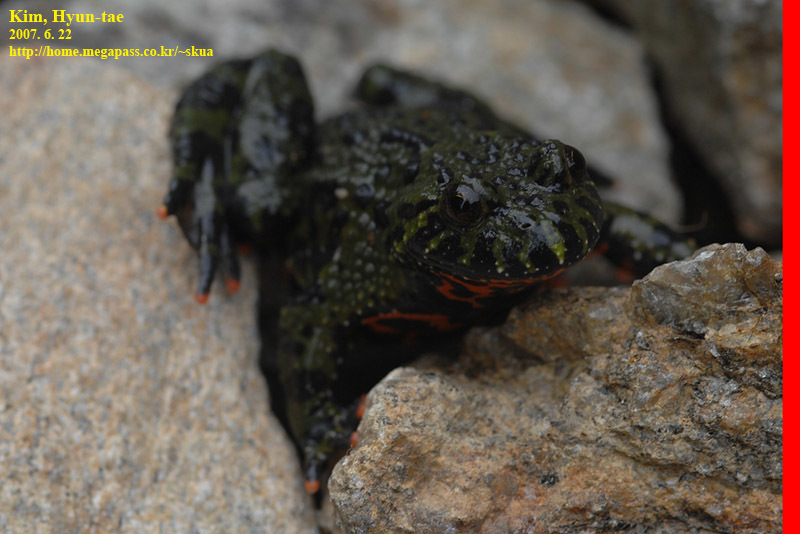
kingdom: Animalia
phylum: Chordata
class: Amphibia
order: Anura
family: Bombinatoridae
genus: Bombina
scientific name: Bombina orientalis
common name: Oriental firebelly toad
